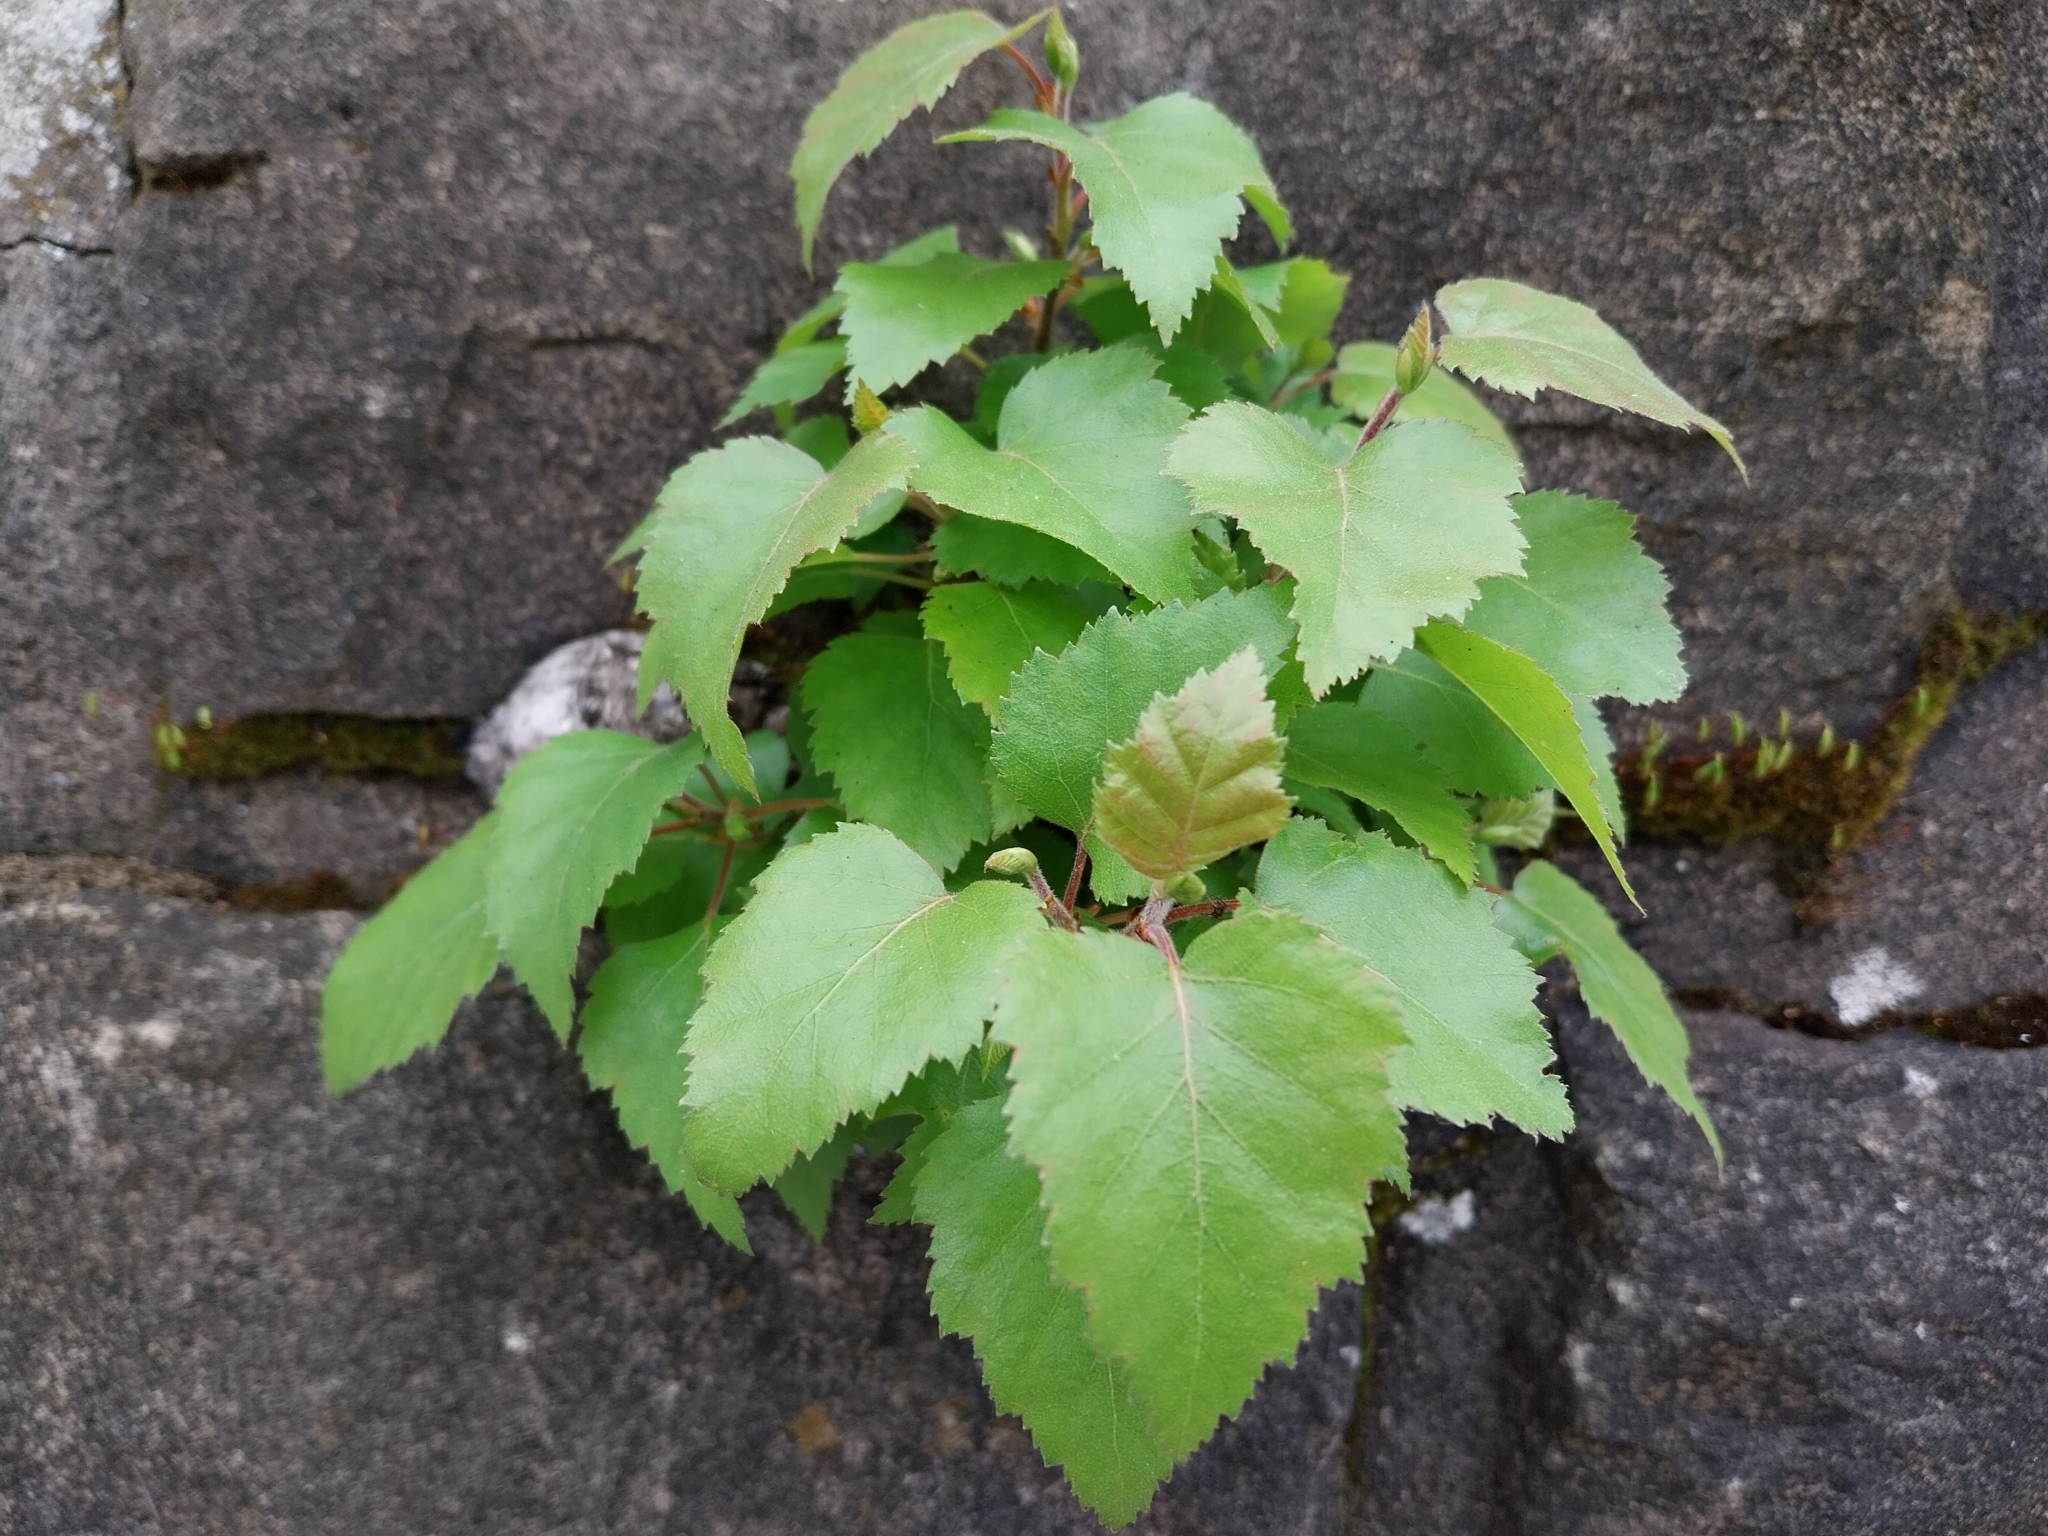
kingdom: Plantae
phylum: Tracheophyta
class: Magnoliopsida
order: Fagales
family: Betulaceae
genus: Betula
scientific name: Betula pendula
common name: Silver birch
